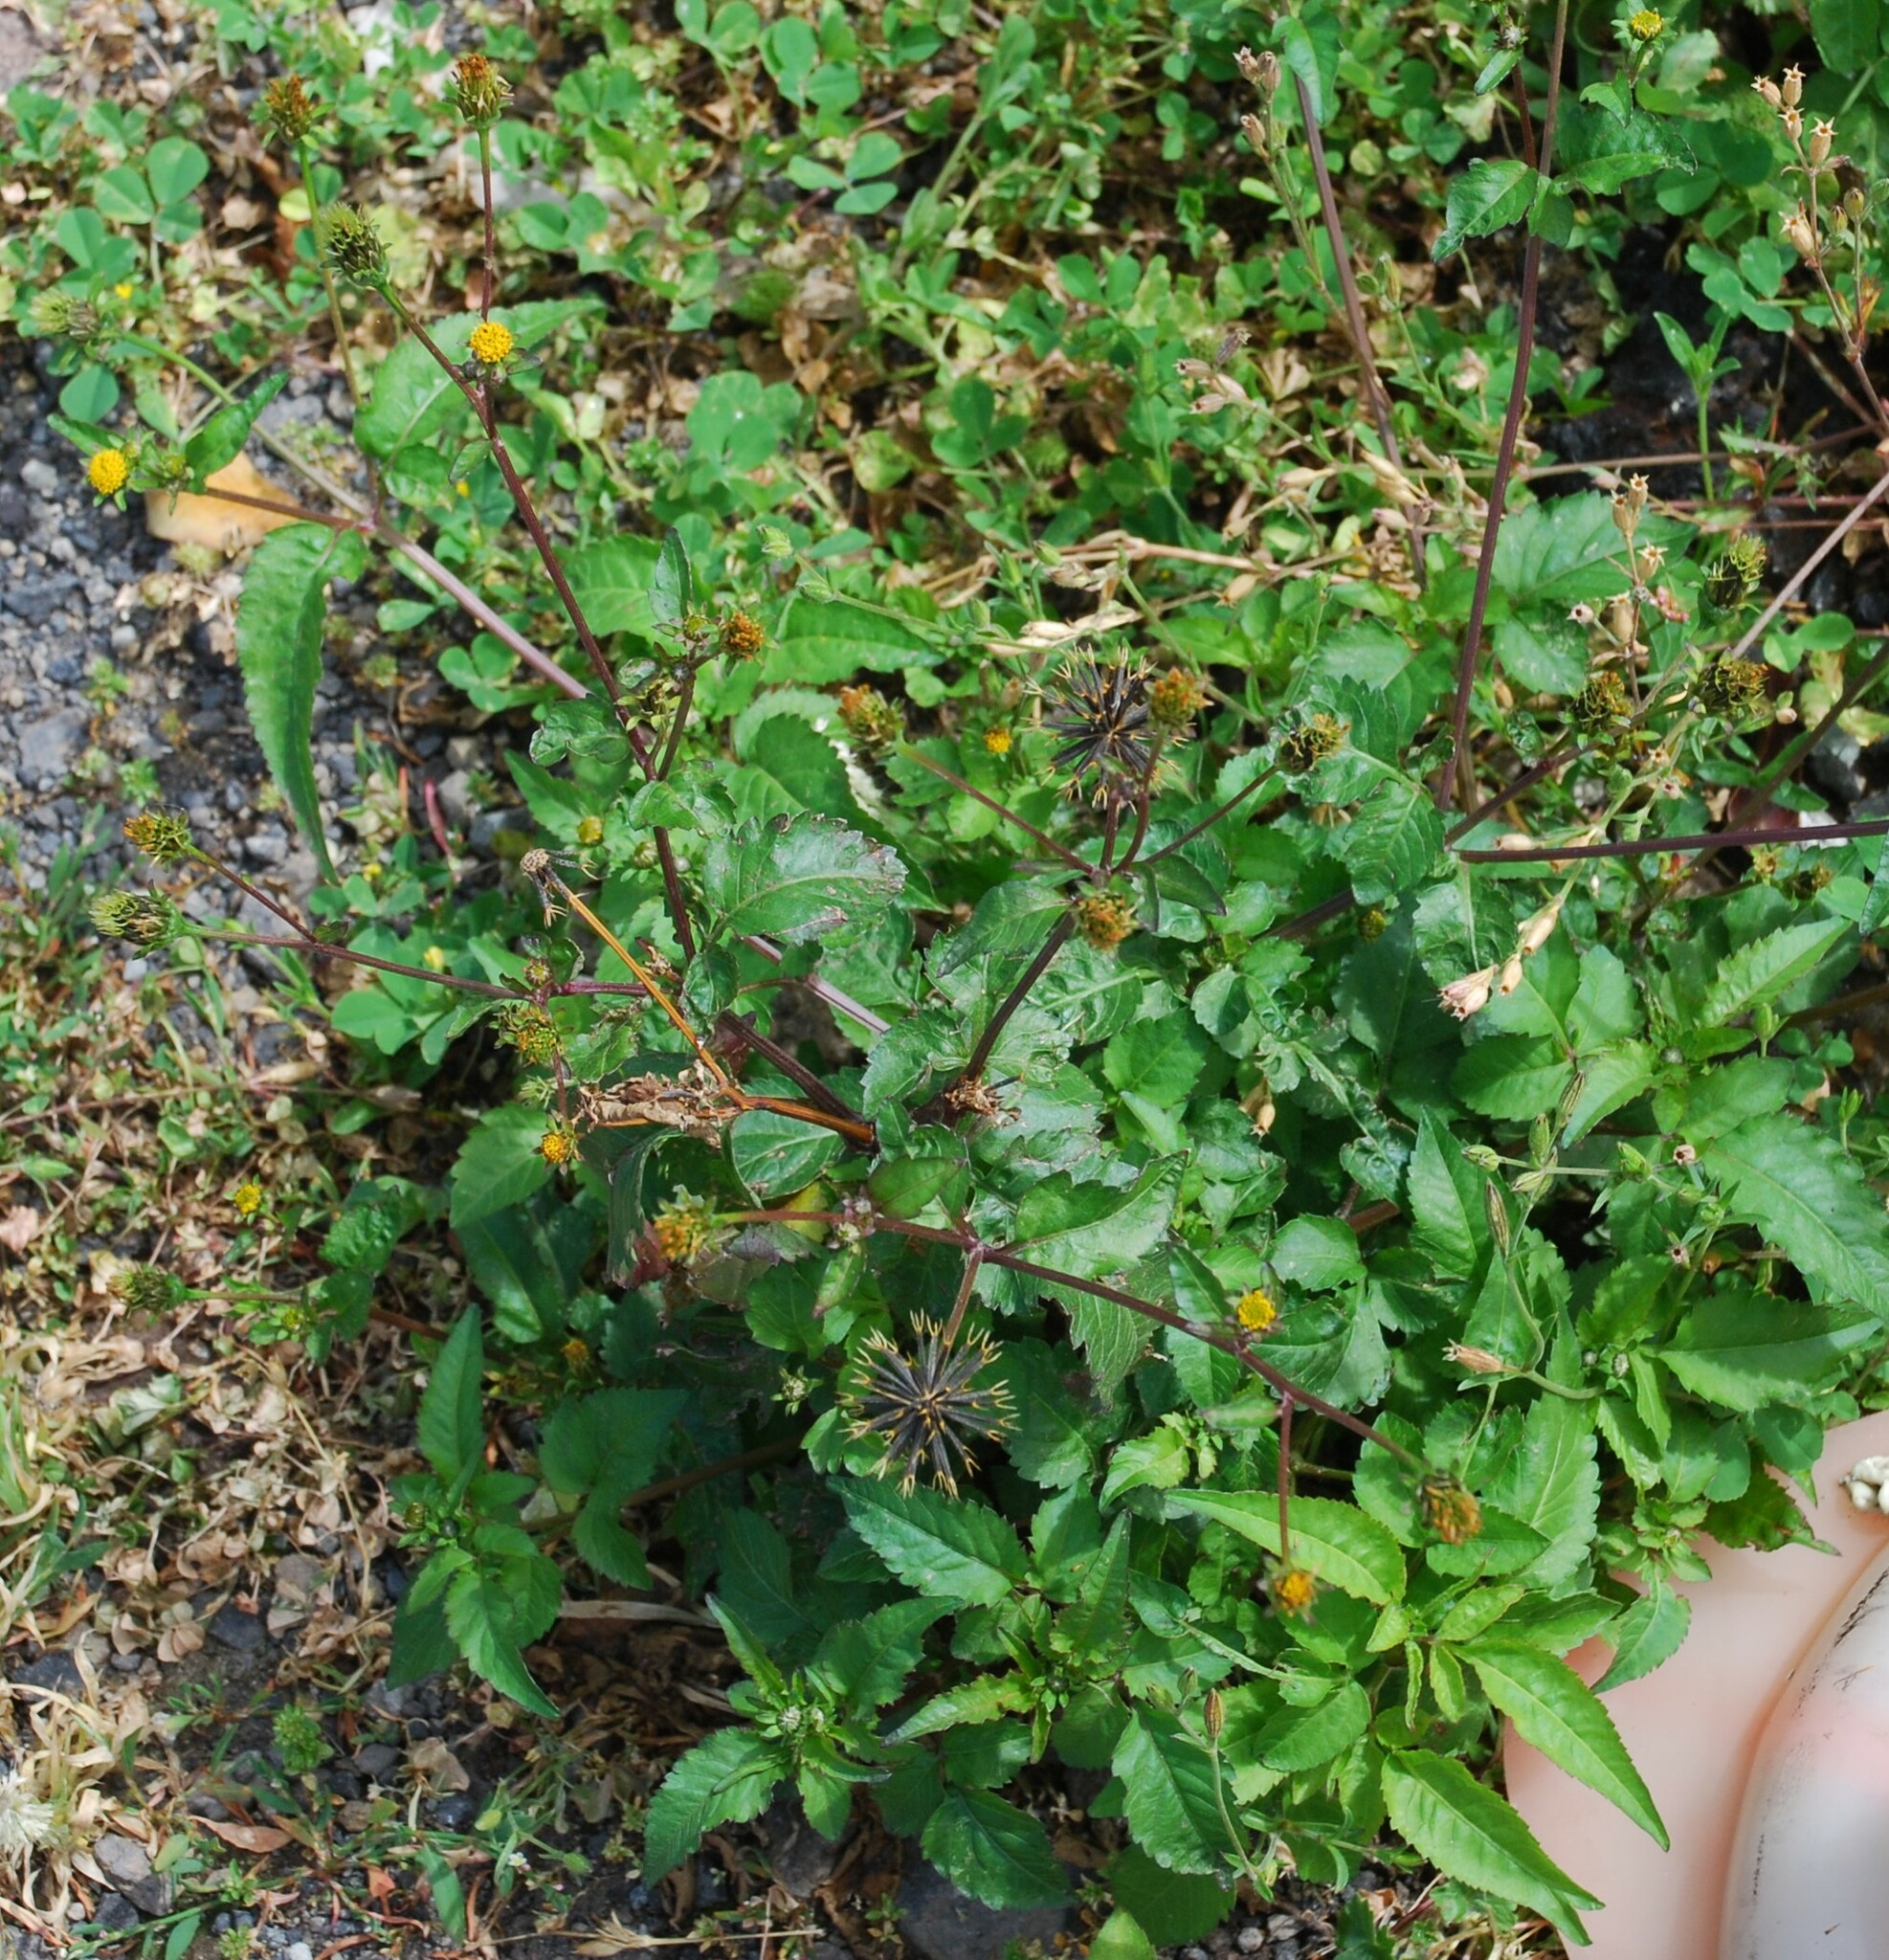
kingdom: Plantae
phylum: Tracheophyta
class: Magnoliopsida
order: Asterales
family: Asteraceae
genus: Bidens
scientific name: Bidens pilosa
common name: Black-jack
